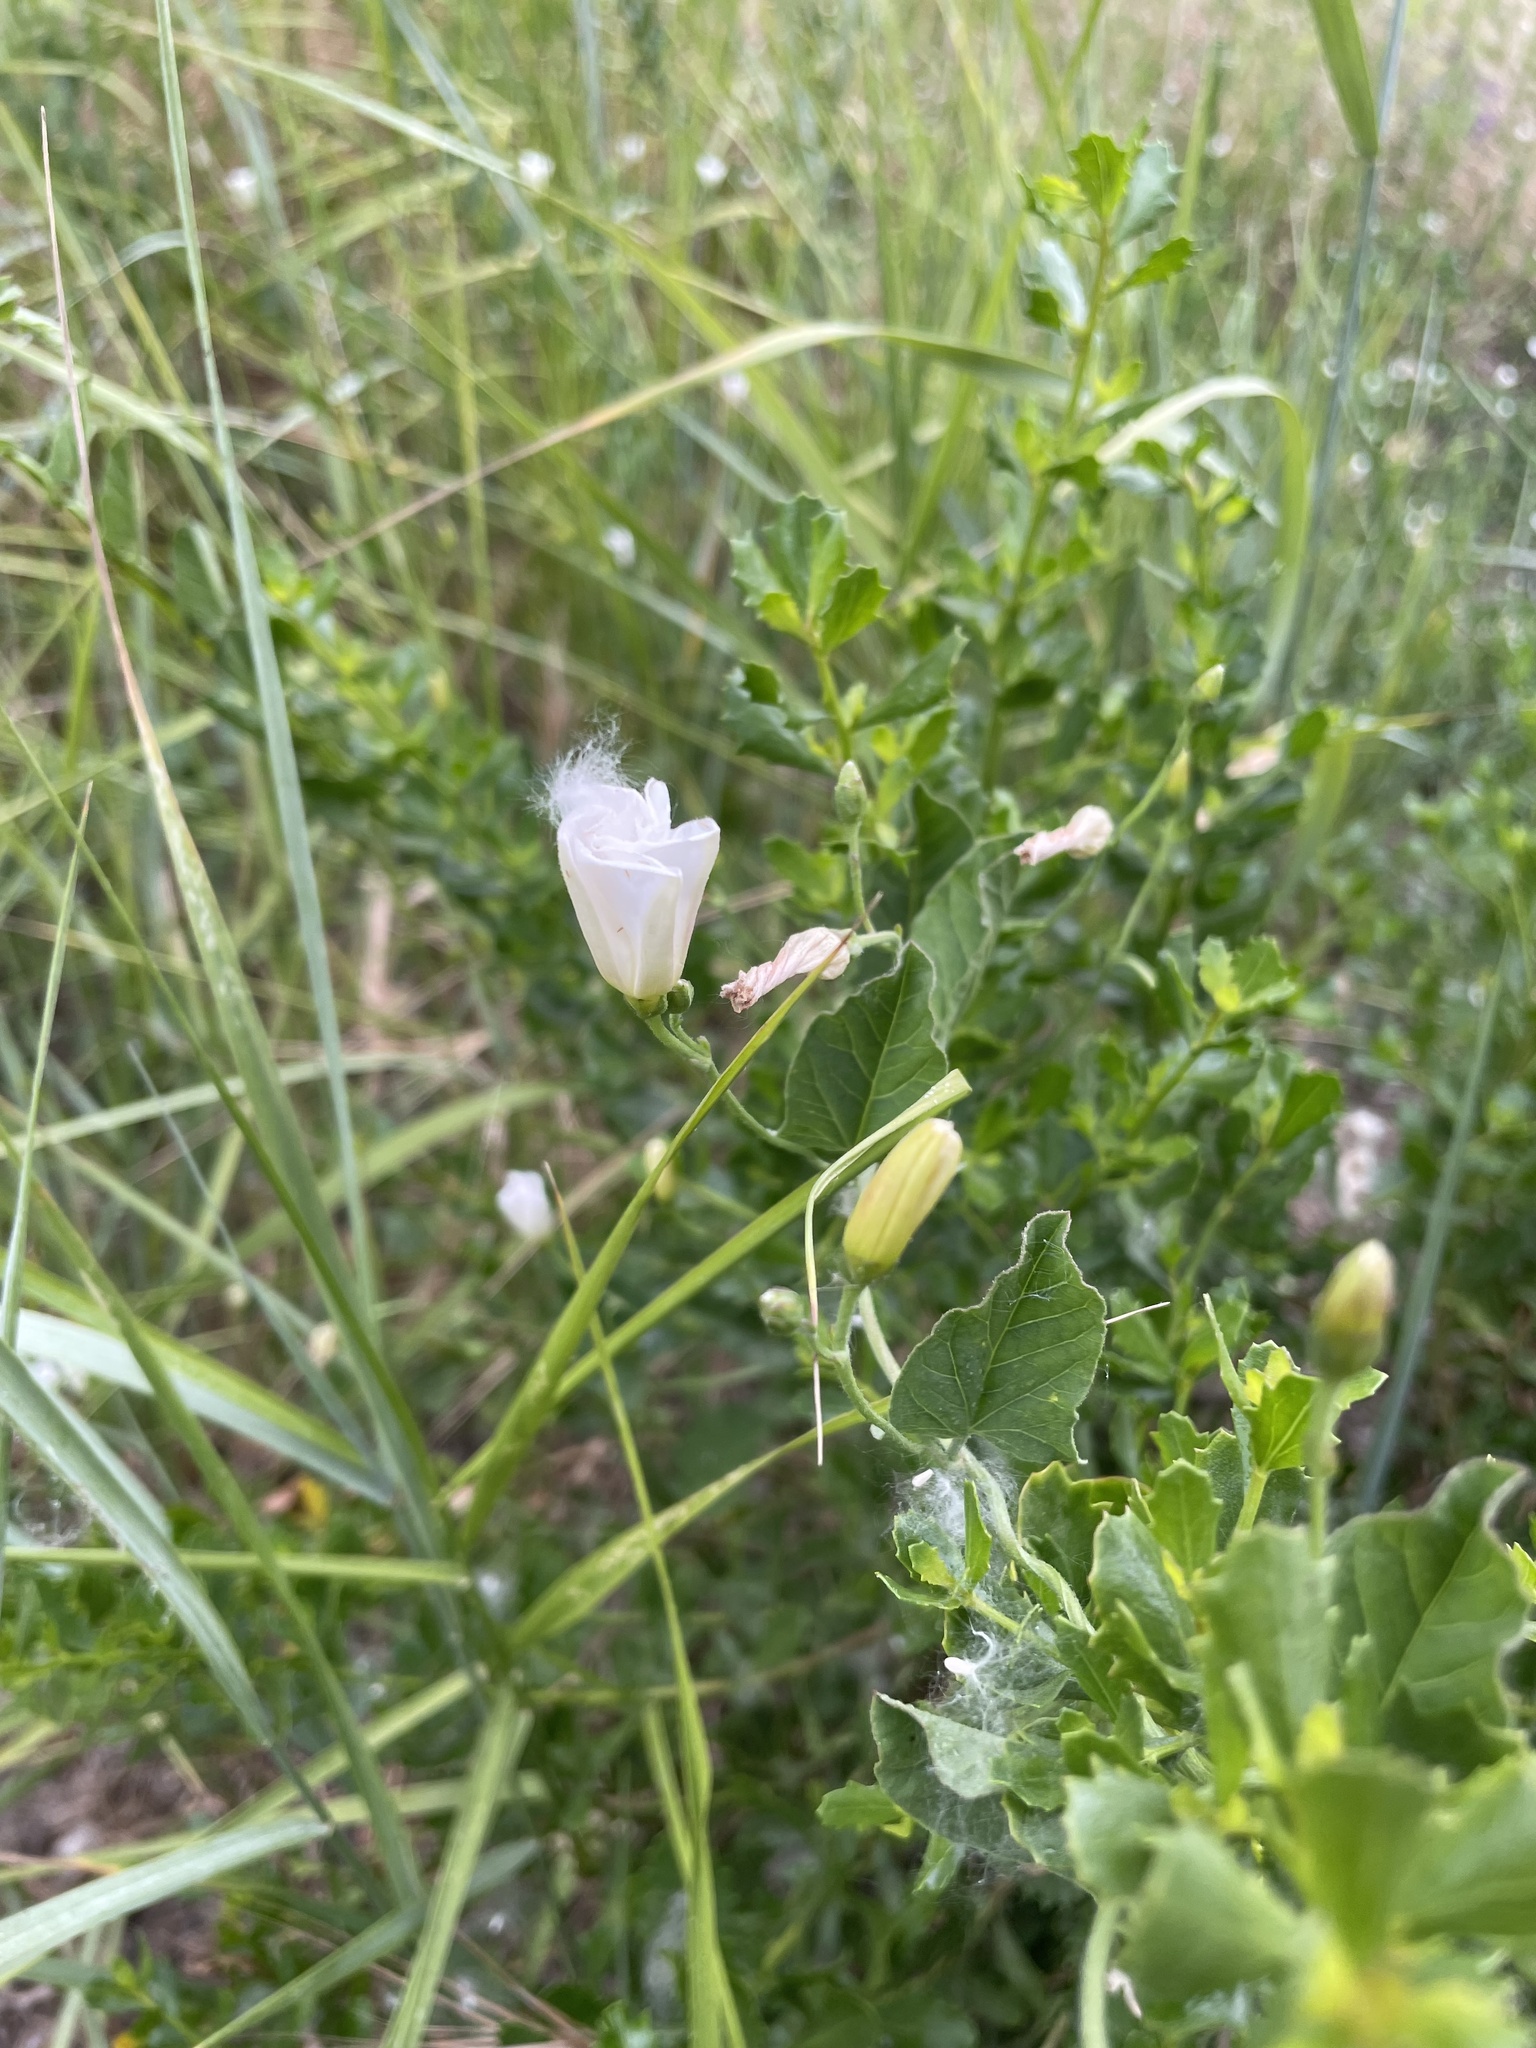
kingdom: Plantae
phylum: Tracheophyta
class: Magnoliopsida
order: Solanales
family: Convolvulaceae
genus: Convolvulus
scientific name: Convolvulus arvensis
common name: Field bindweed
